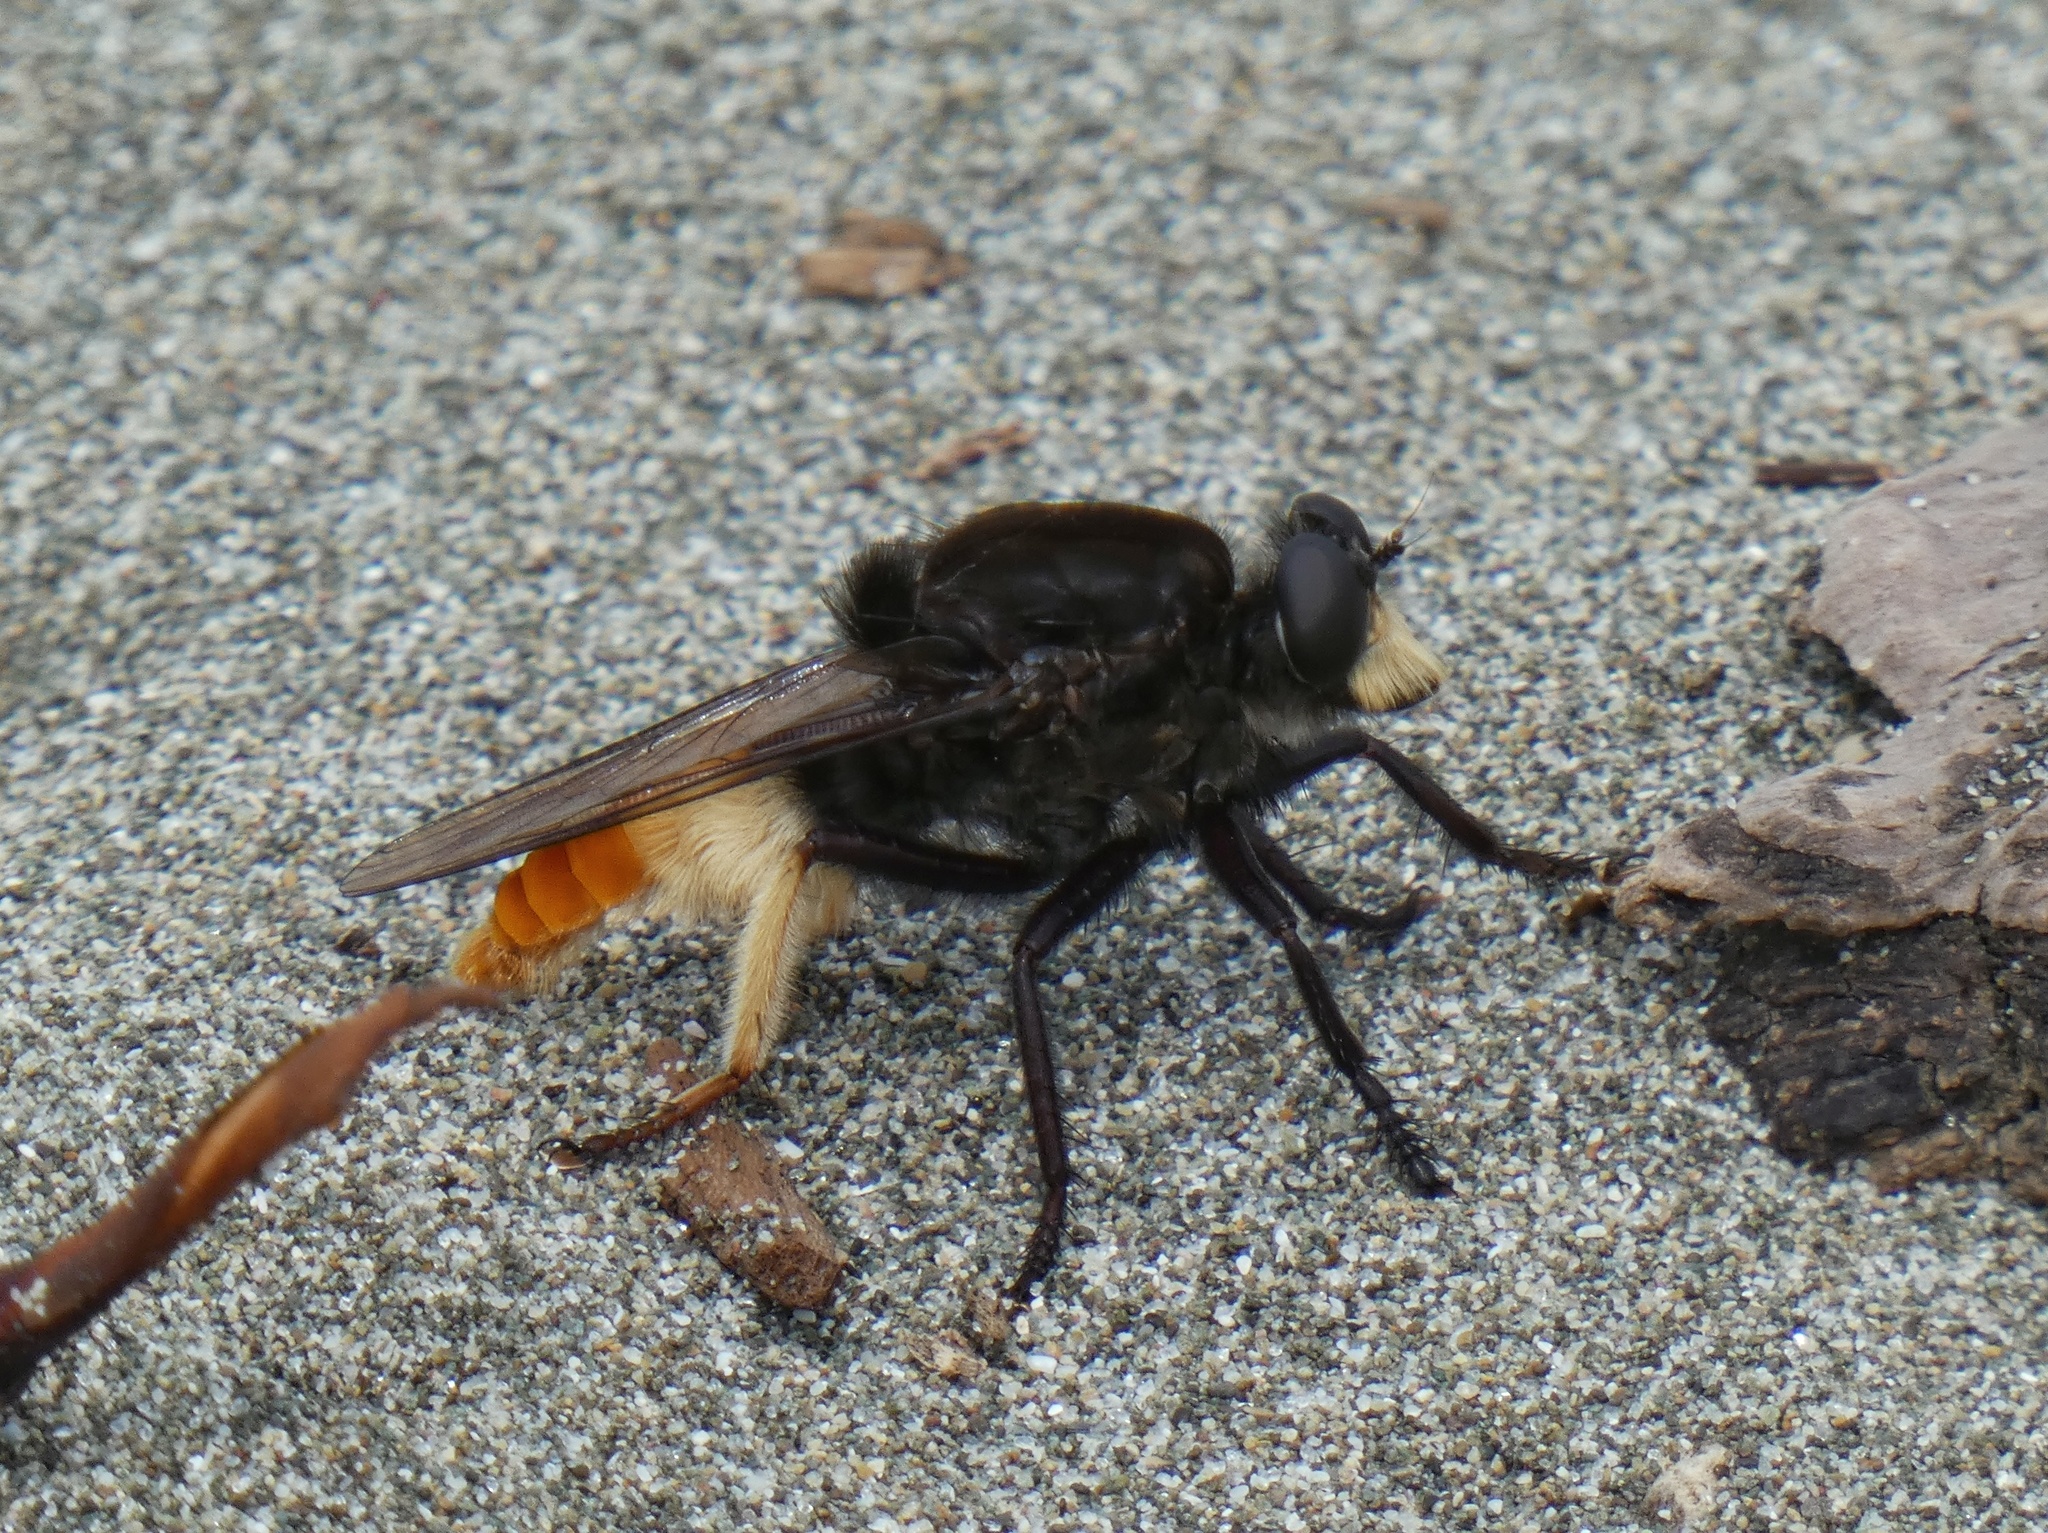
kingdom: Animalia
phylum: Arthropoda
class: Insecta
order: Diptera
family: Asilidae
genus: Eccritosia
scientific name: Eccritosia zamon
